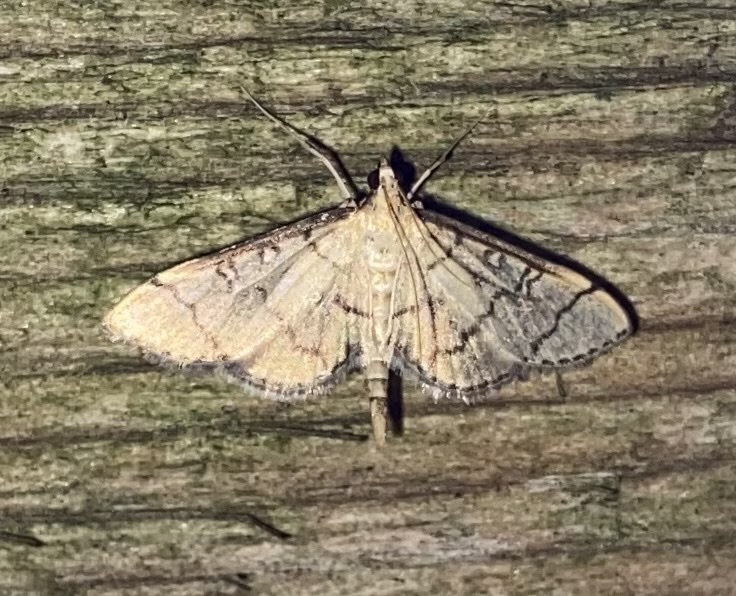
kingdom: Animalia
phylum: Arthropoda
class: Insecta
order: Lepidoptera
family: Crambidae
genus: Lamprosema
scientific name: Lamprosema Blepharomastix ranalis
